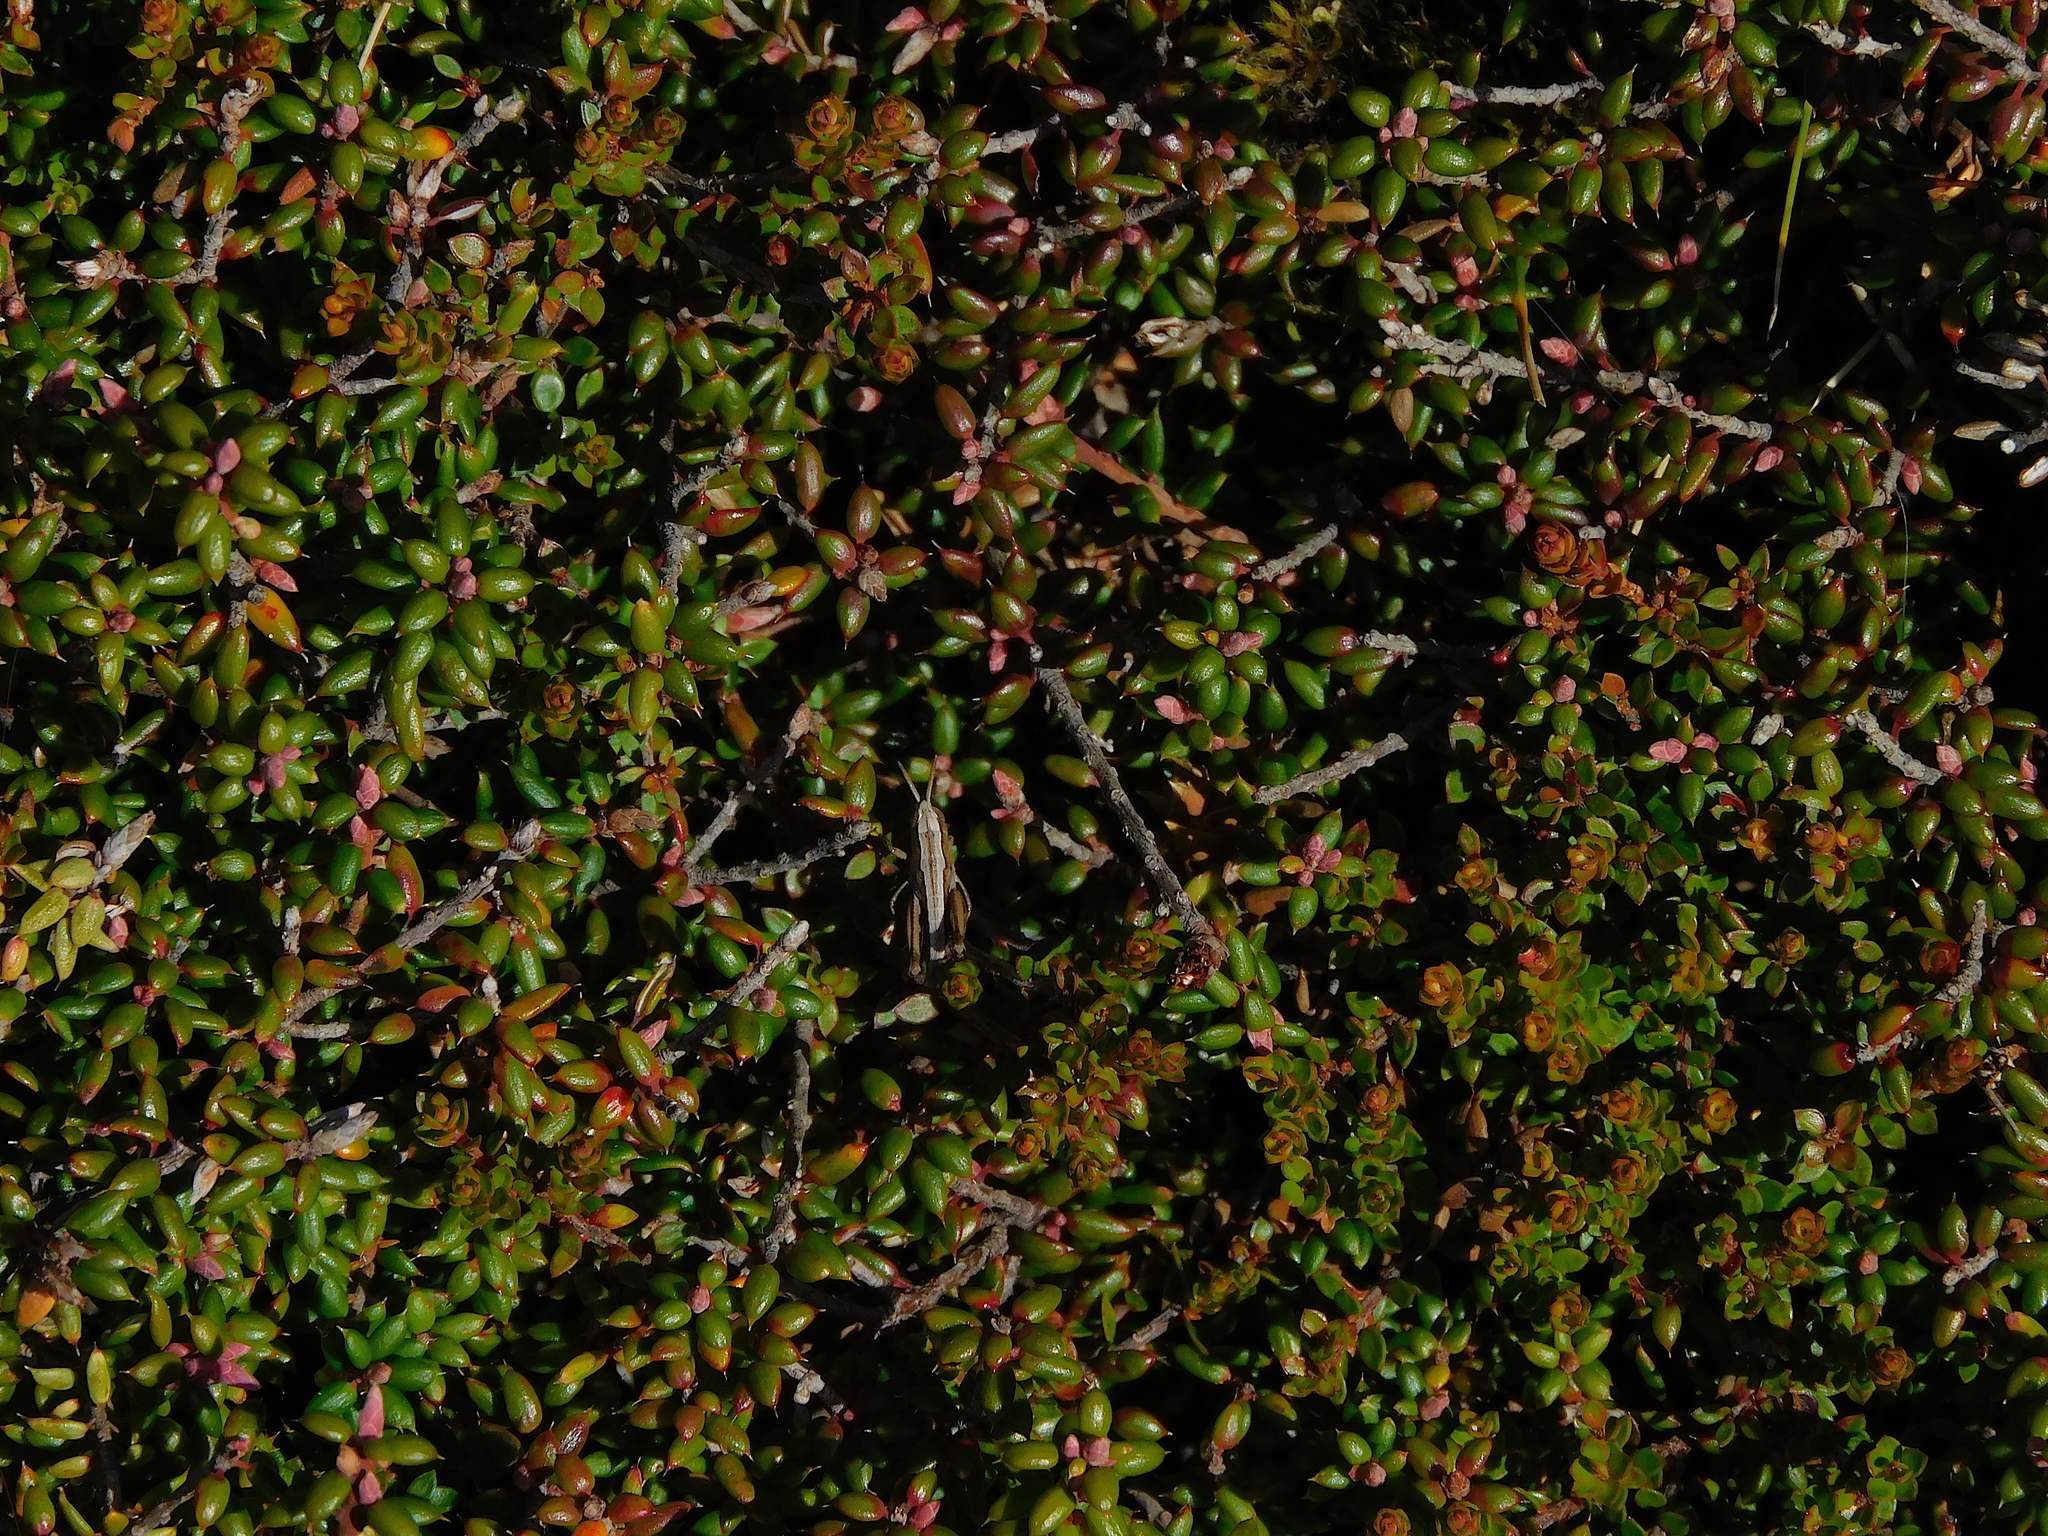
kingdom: Animalia
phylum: Arthropoda
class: Insecta
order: Orthoptera
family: Acrididae
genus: Russalpia
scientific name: Russalpia albertisi
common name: Tassie hopper
